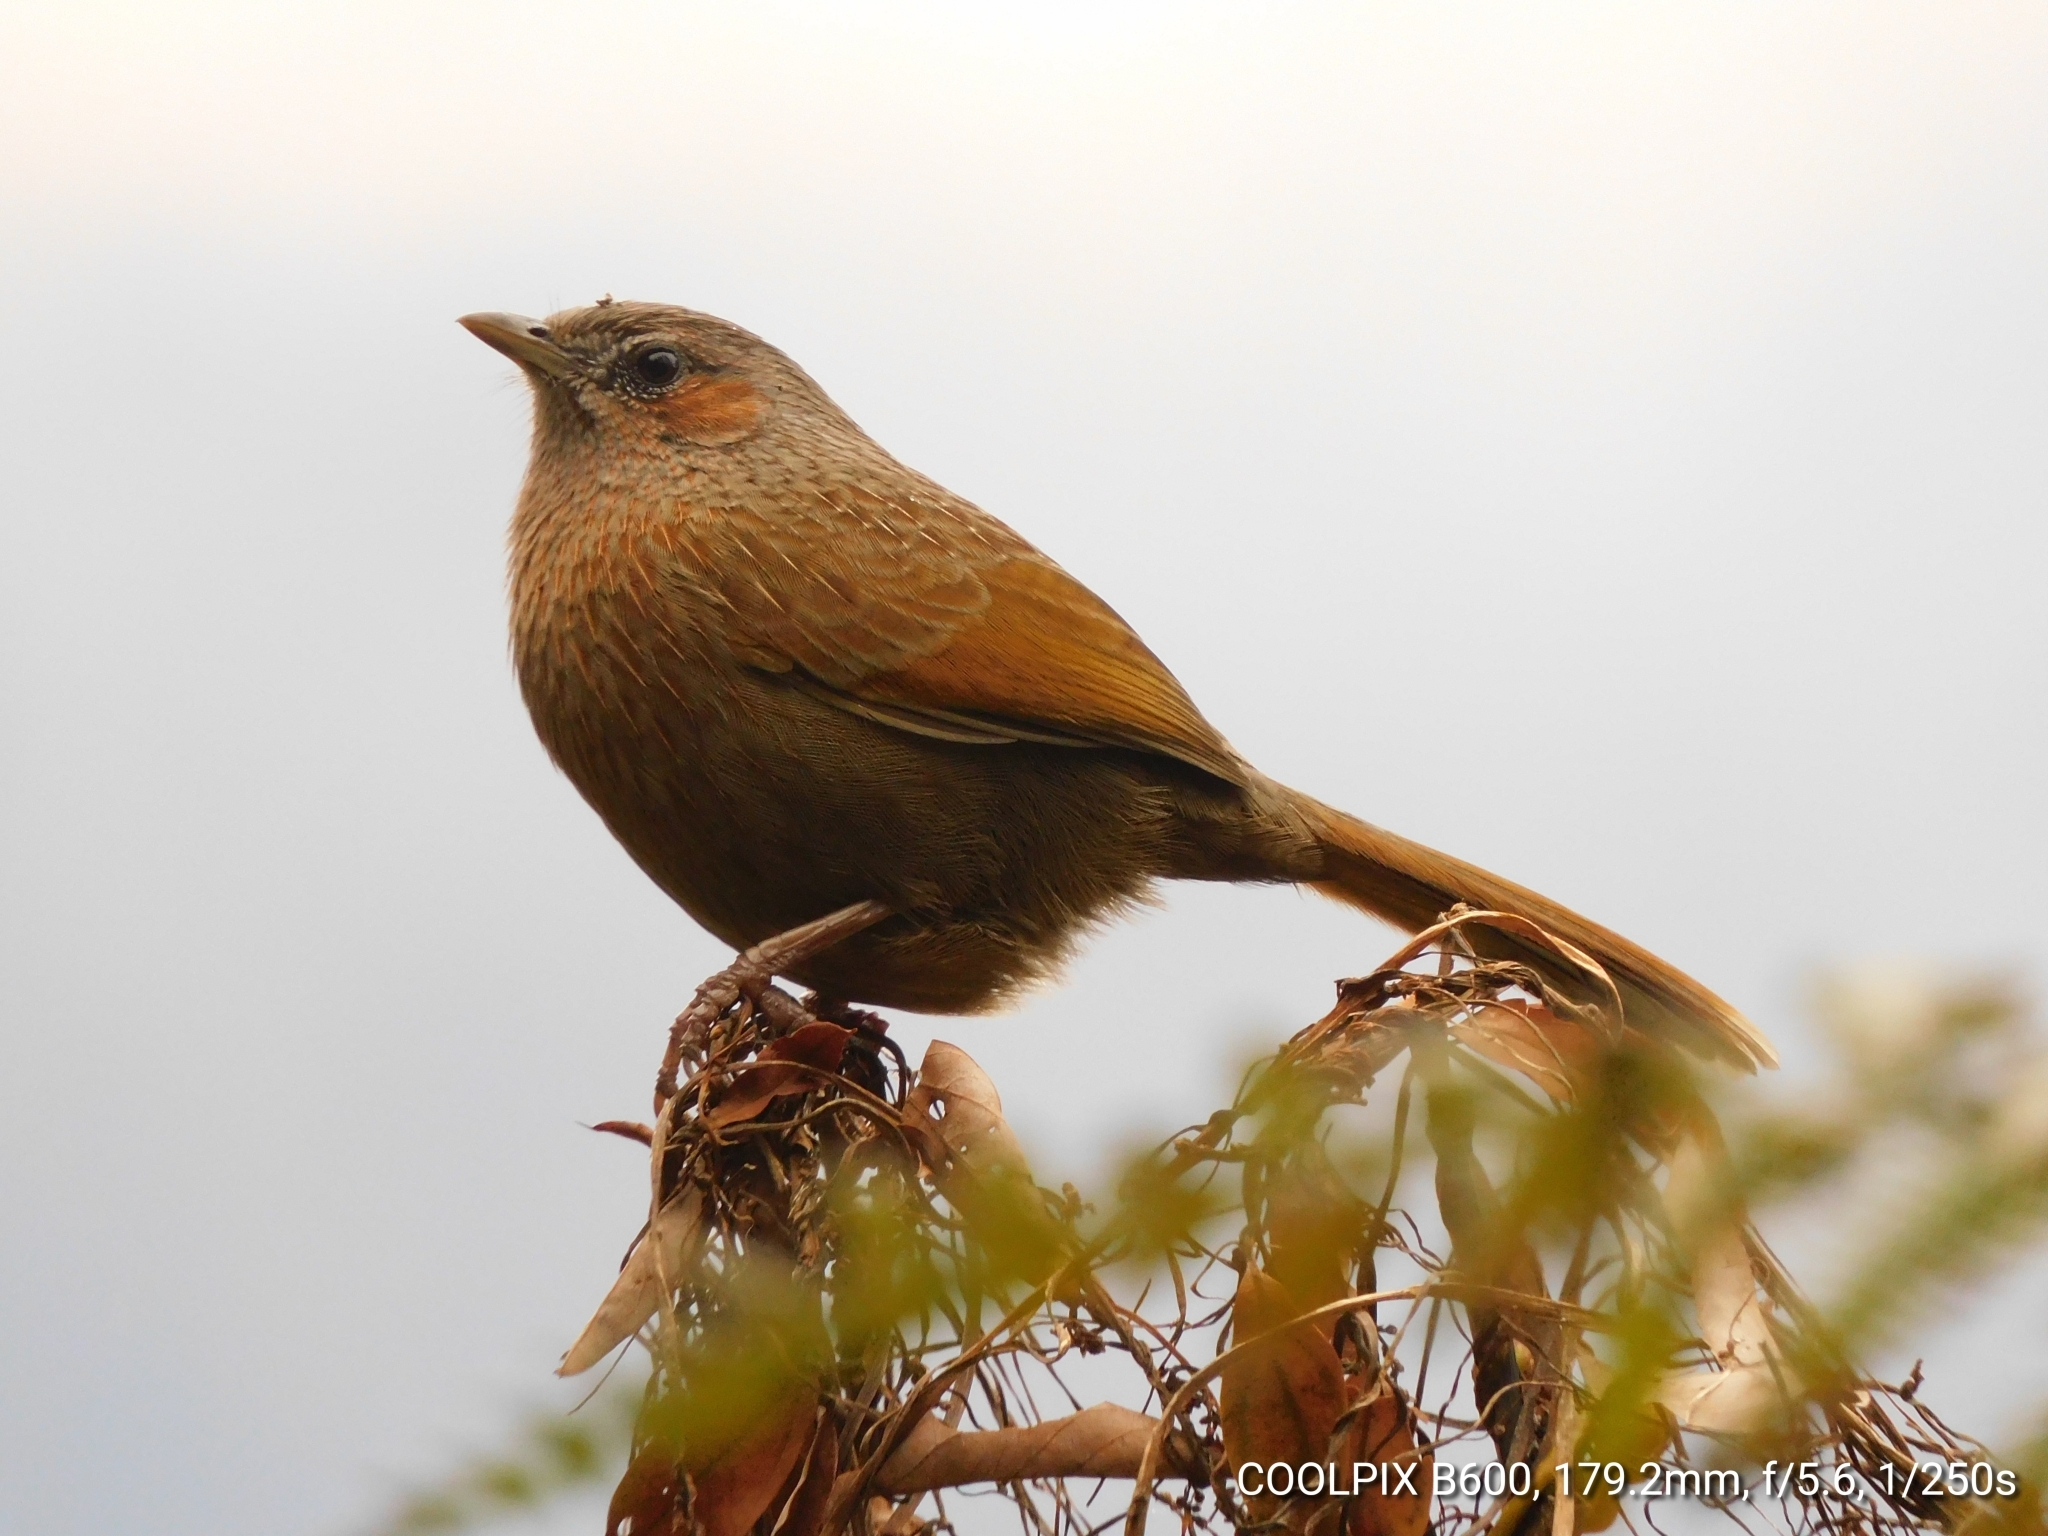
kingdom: Animalia
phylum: Chordata
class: Aves
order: Passeriformes
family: Leiothrichidae
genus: Trochalopteron
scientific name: Trochalopteron lineatum
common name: Streaked laughingthrush
